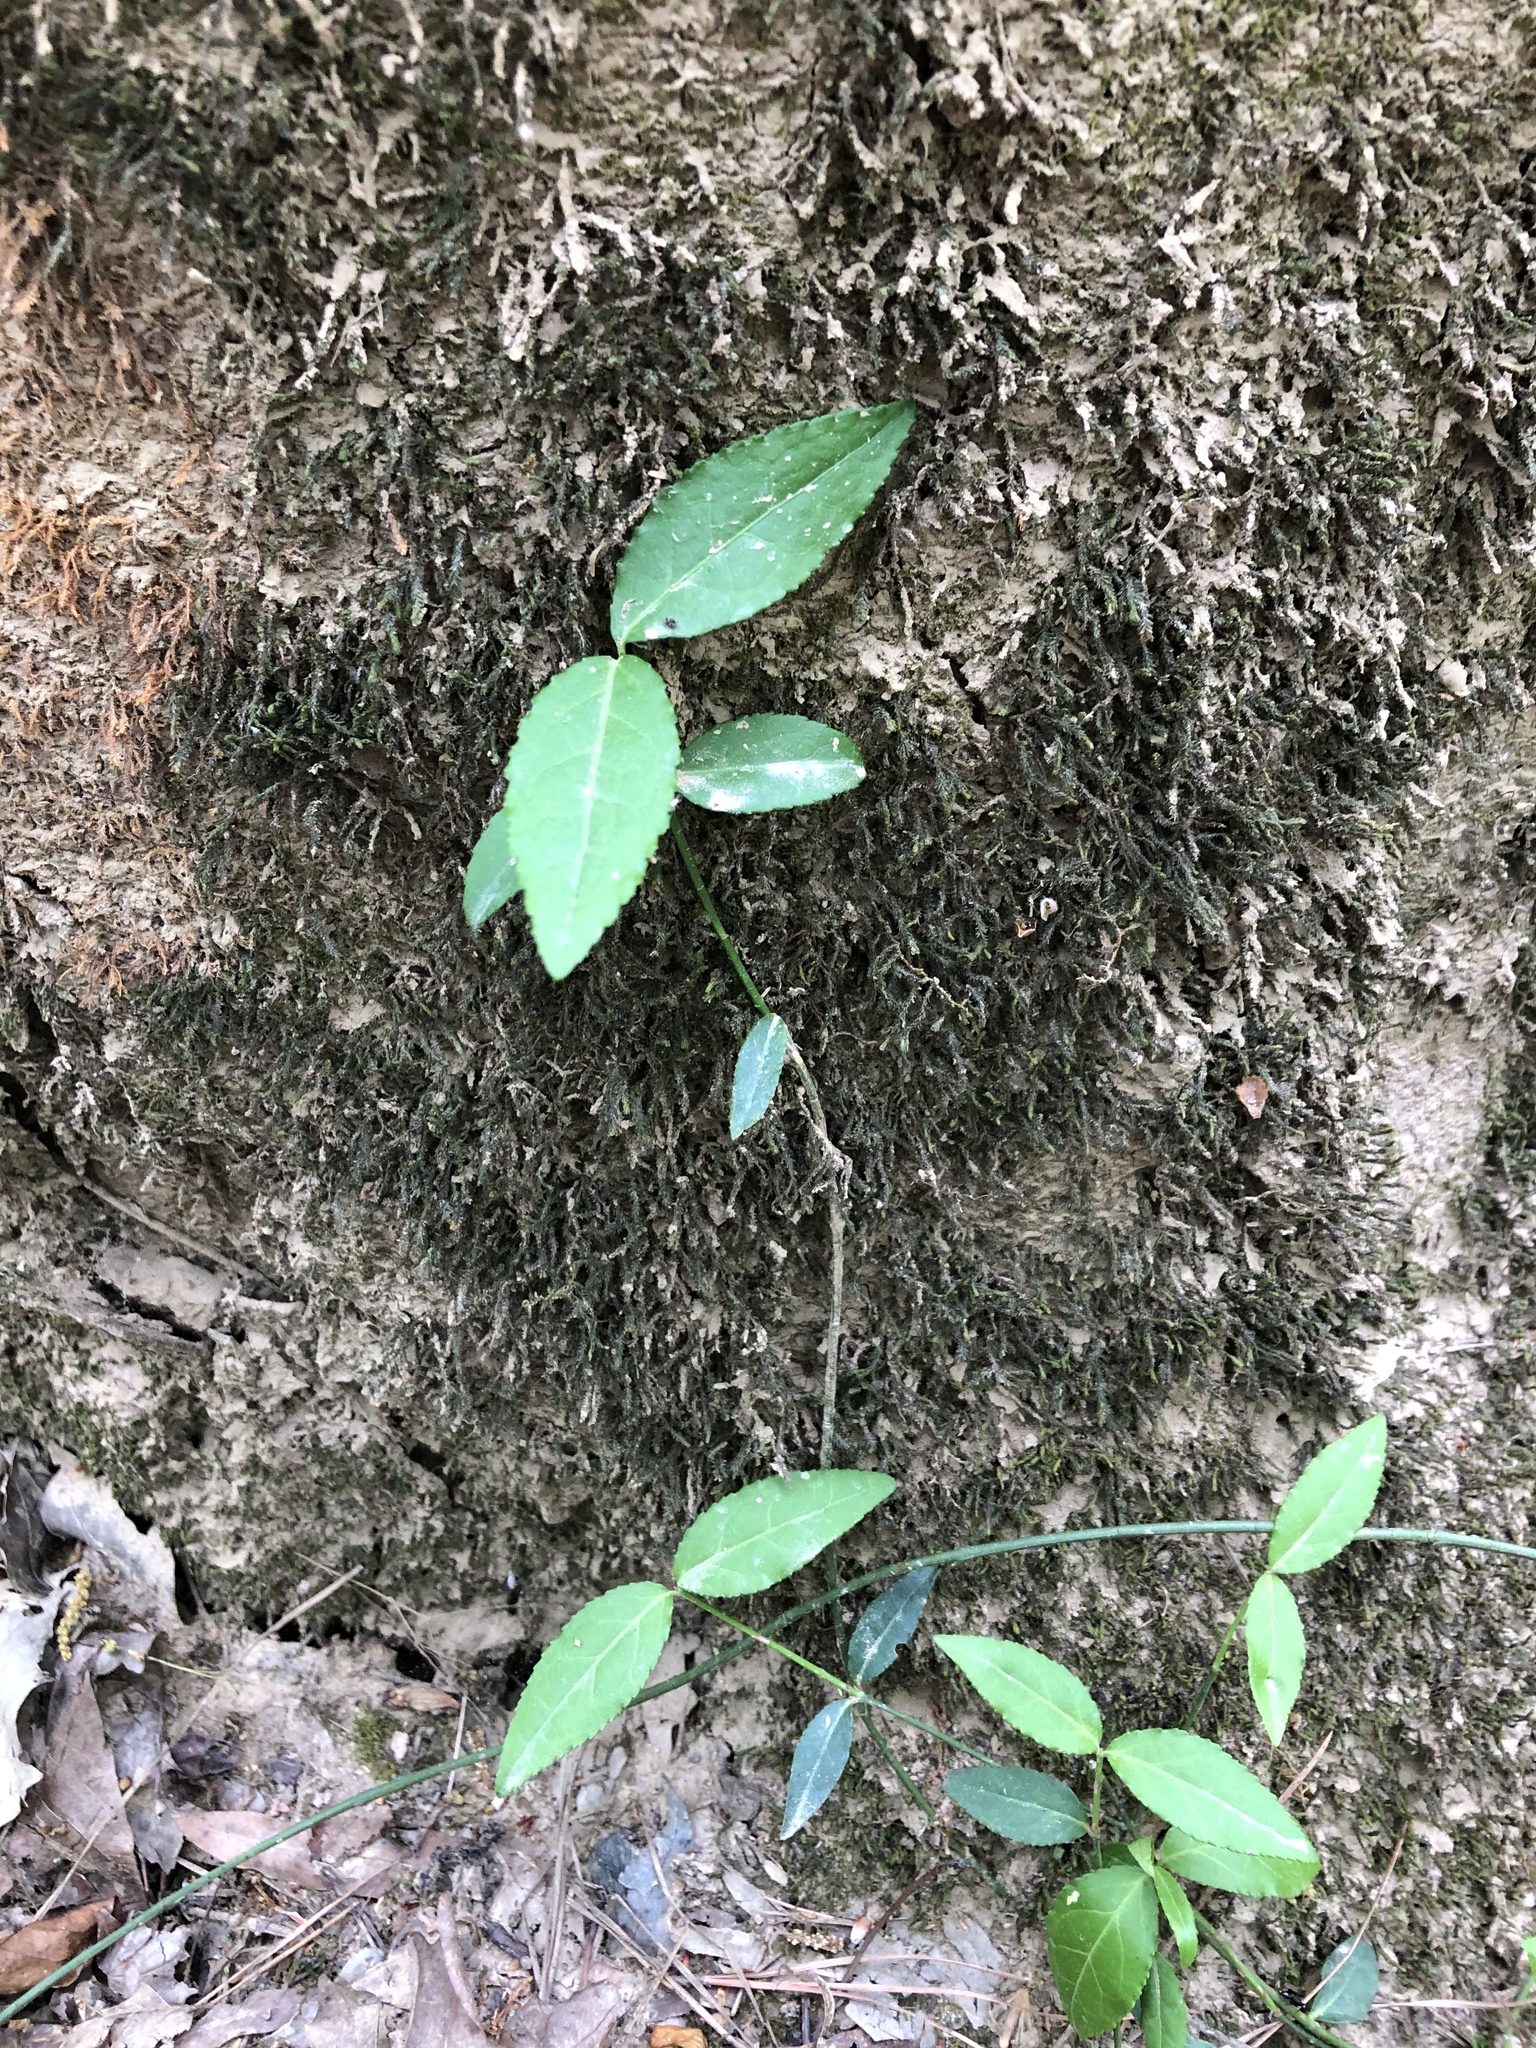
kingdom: Plantae
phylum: Tracheophyta
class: Magnoliopsida
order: Celastrales
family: Celastraceae
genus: Euonymus
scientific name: Euonymus americanus
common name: Bursting-heart
